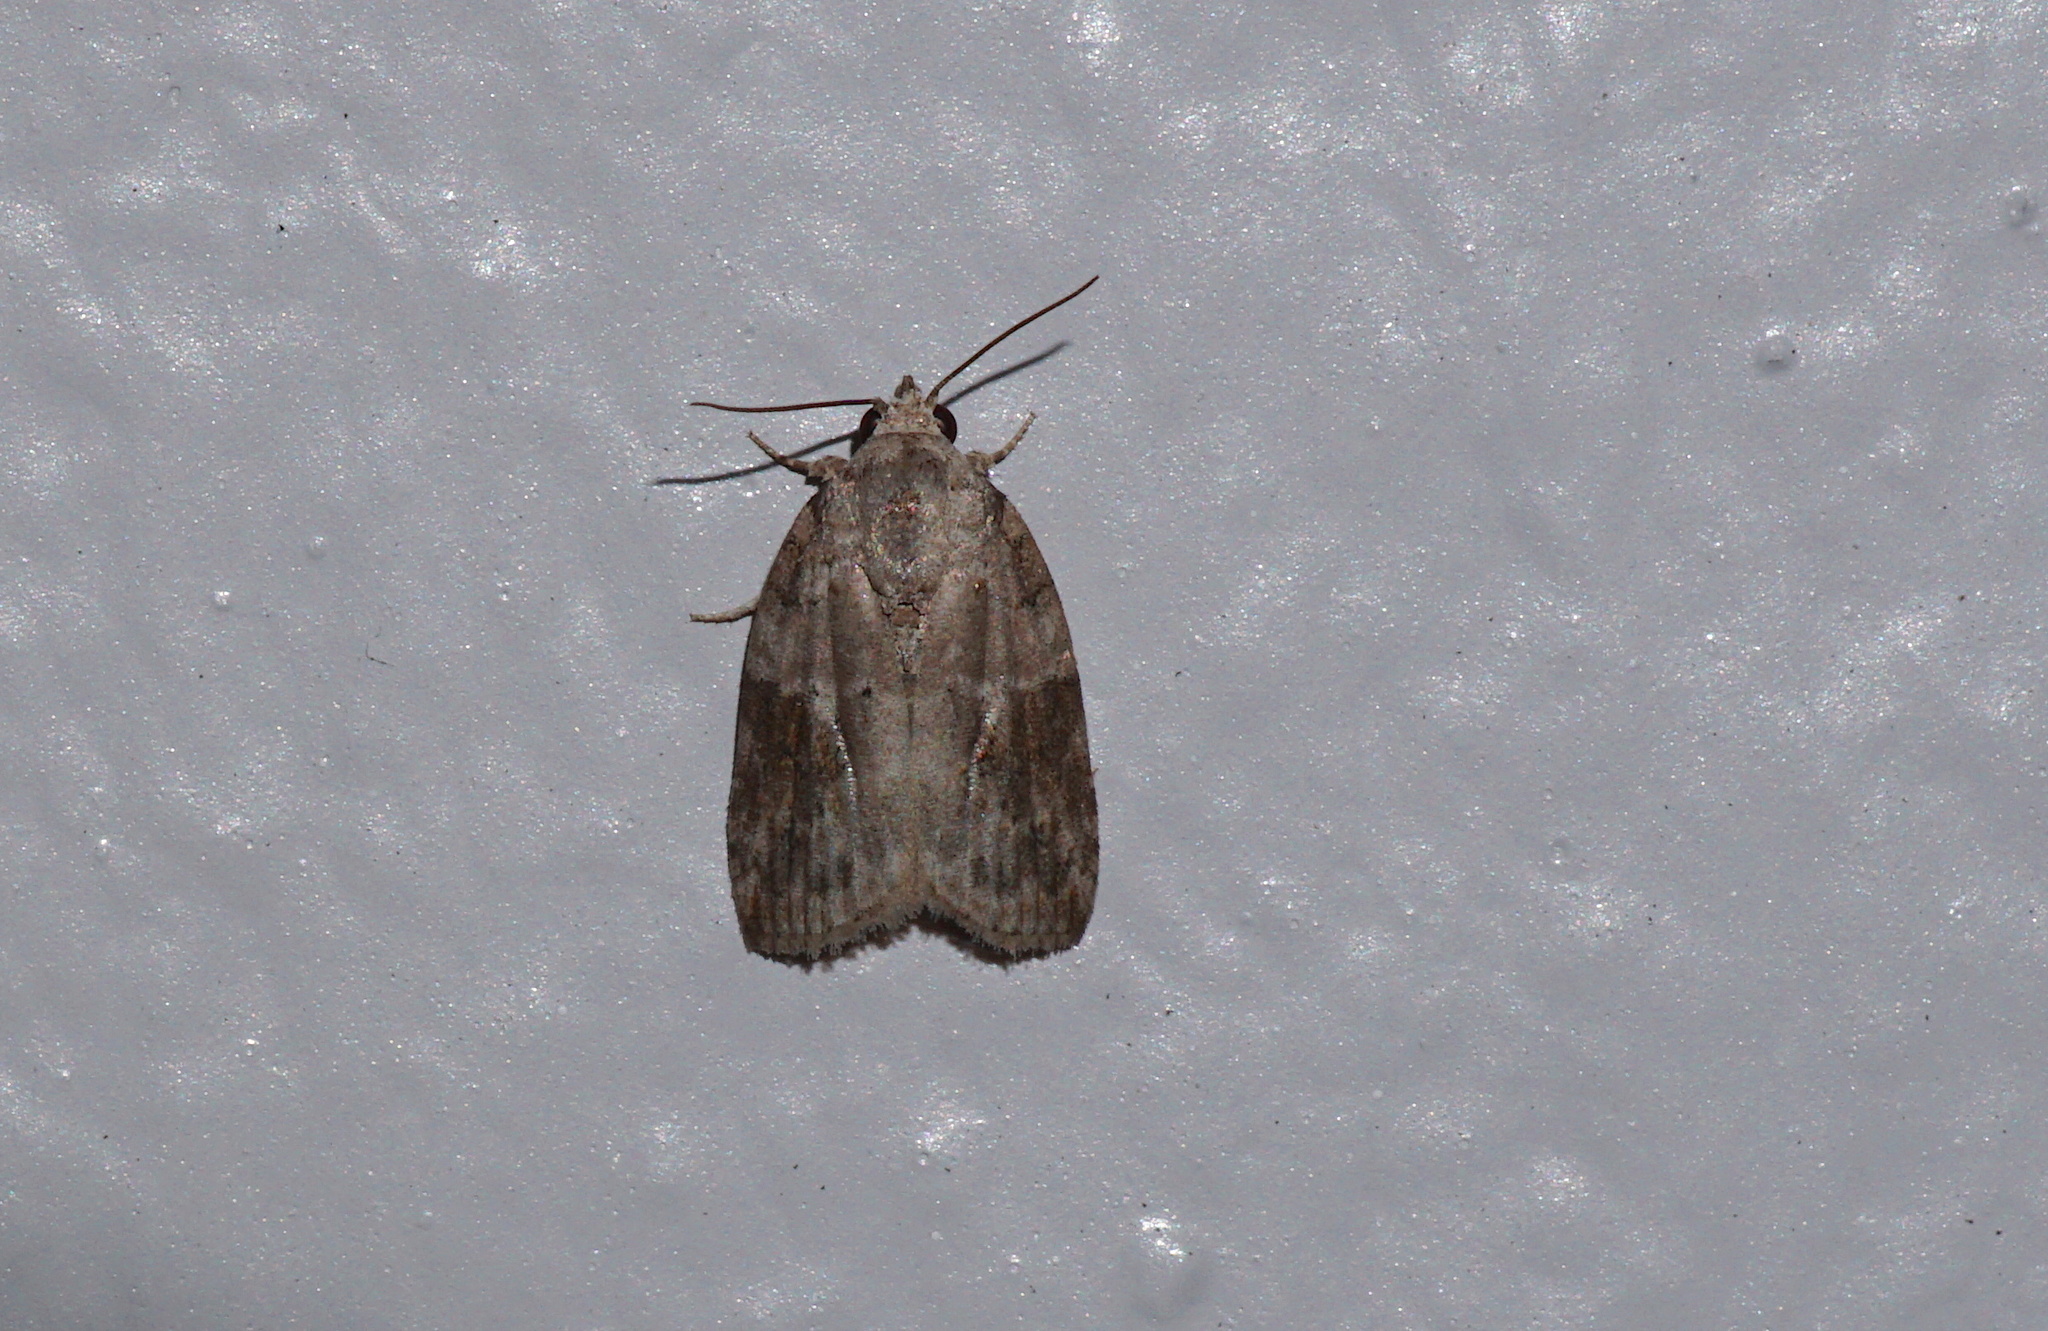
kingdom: Animalia
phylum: Arthropoda
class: Insecta
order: Lepidoptera
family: Nolidae
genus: Garella
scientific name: Garella nilotica
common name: Black-olive caterpillar moth
